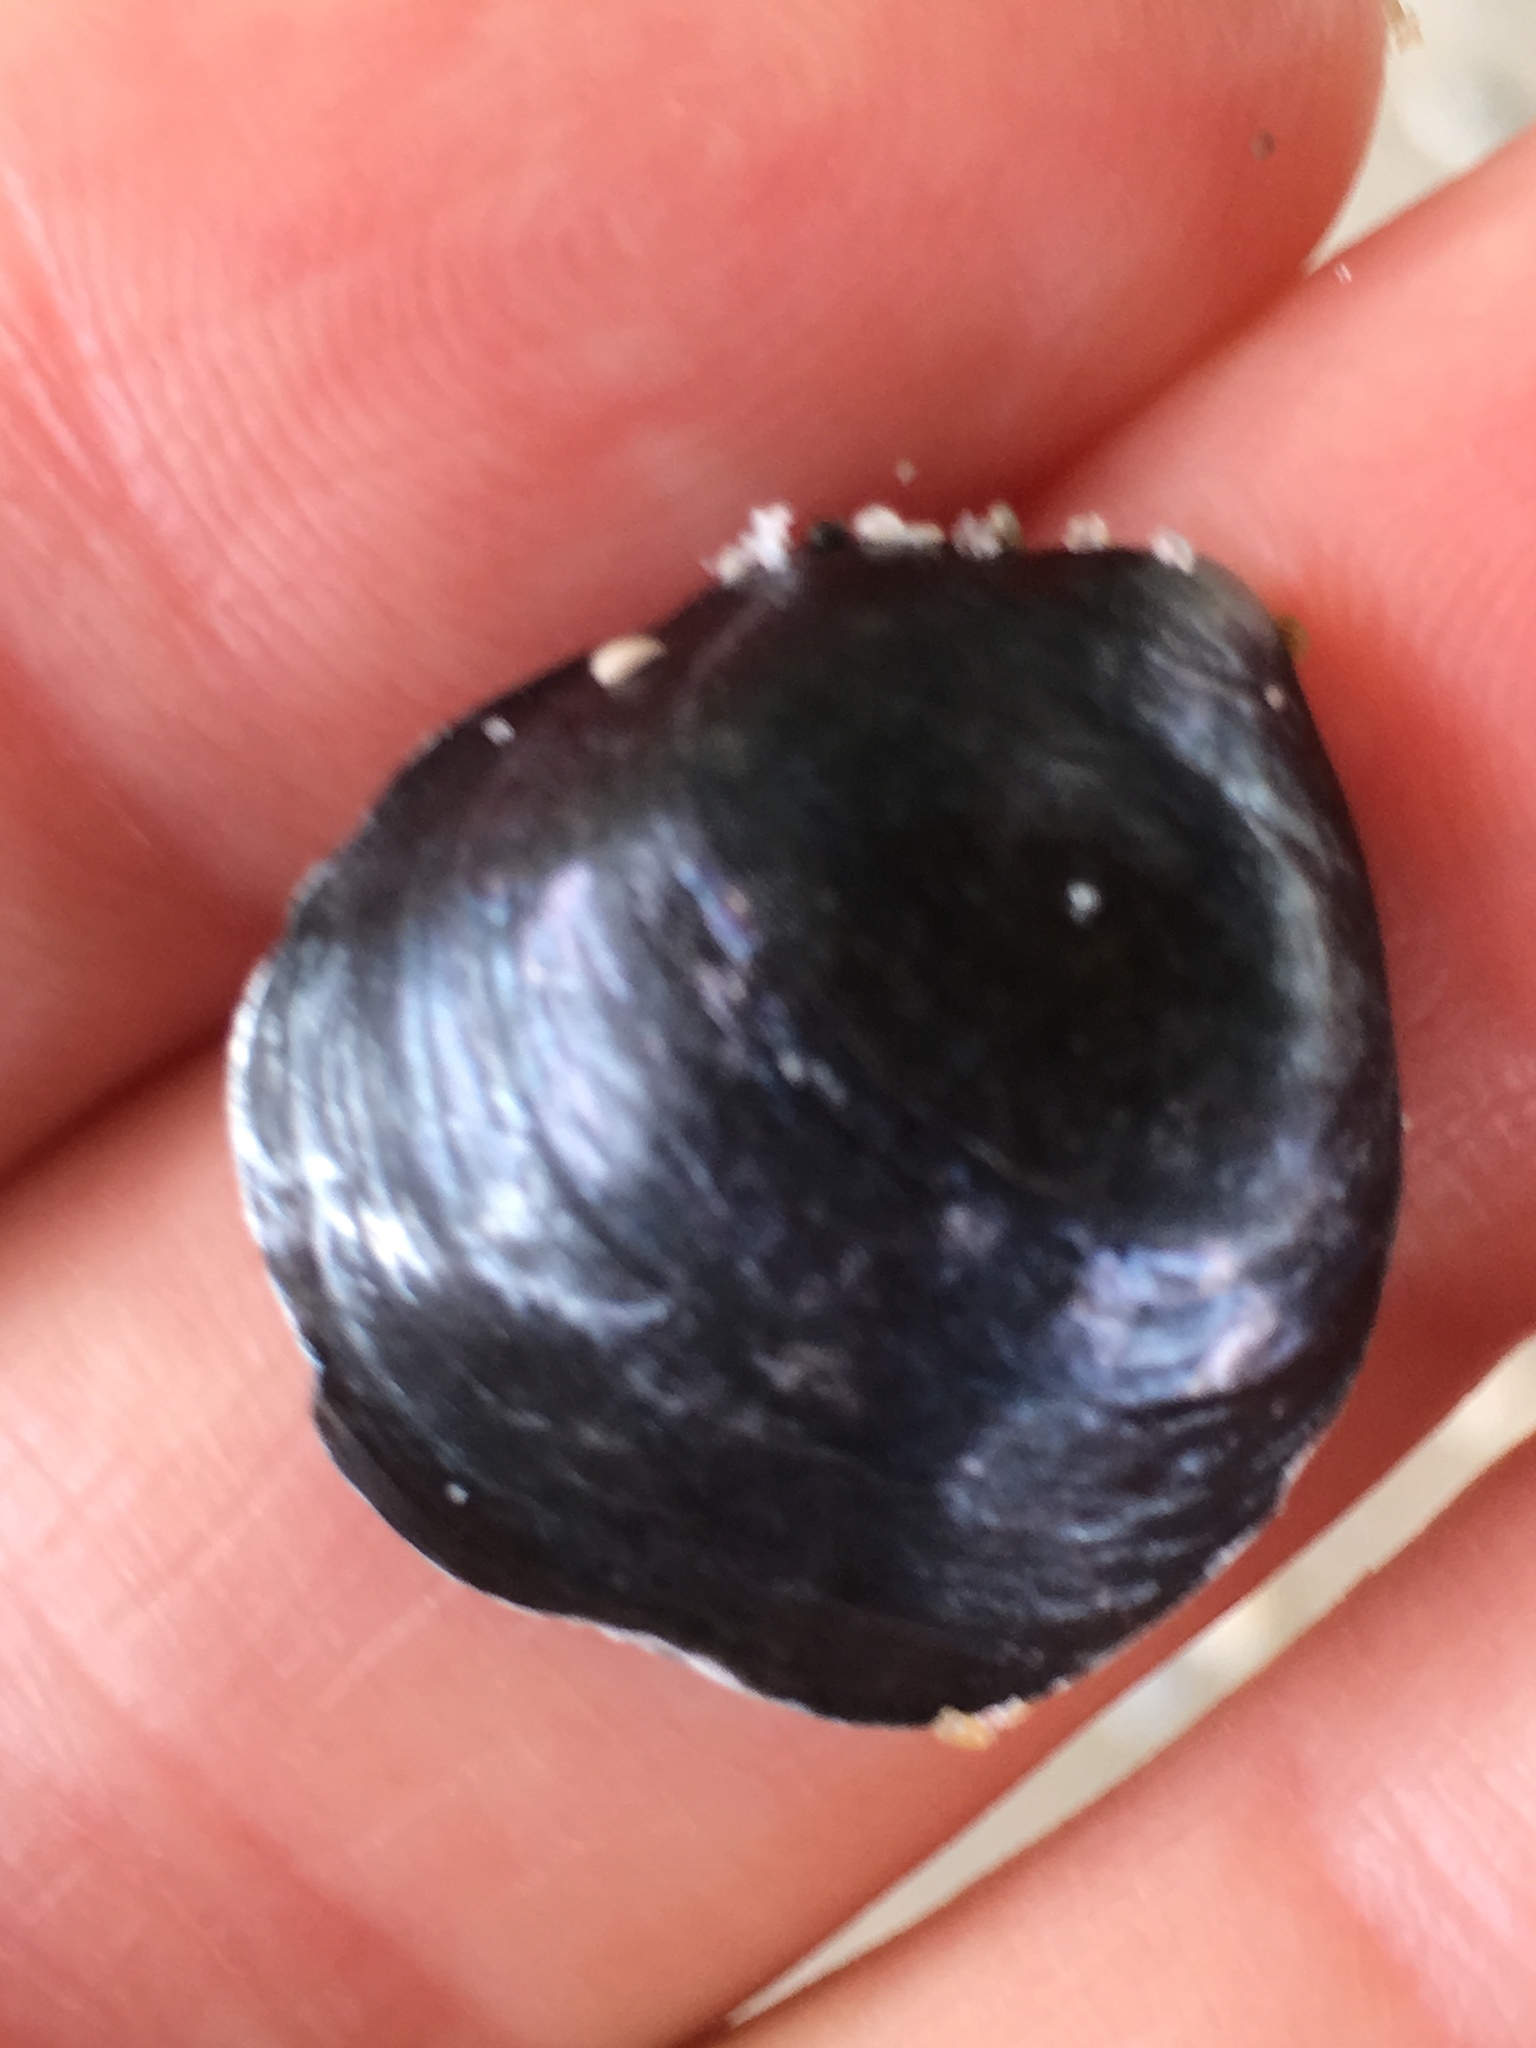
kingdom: Animalia
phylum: Mollusca
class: Bivalvia
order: Pectinida
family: Anomiidae
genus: Anomia
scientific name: Anomia simplex
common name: Common jingle shell
